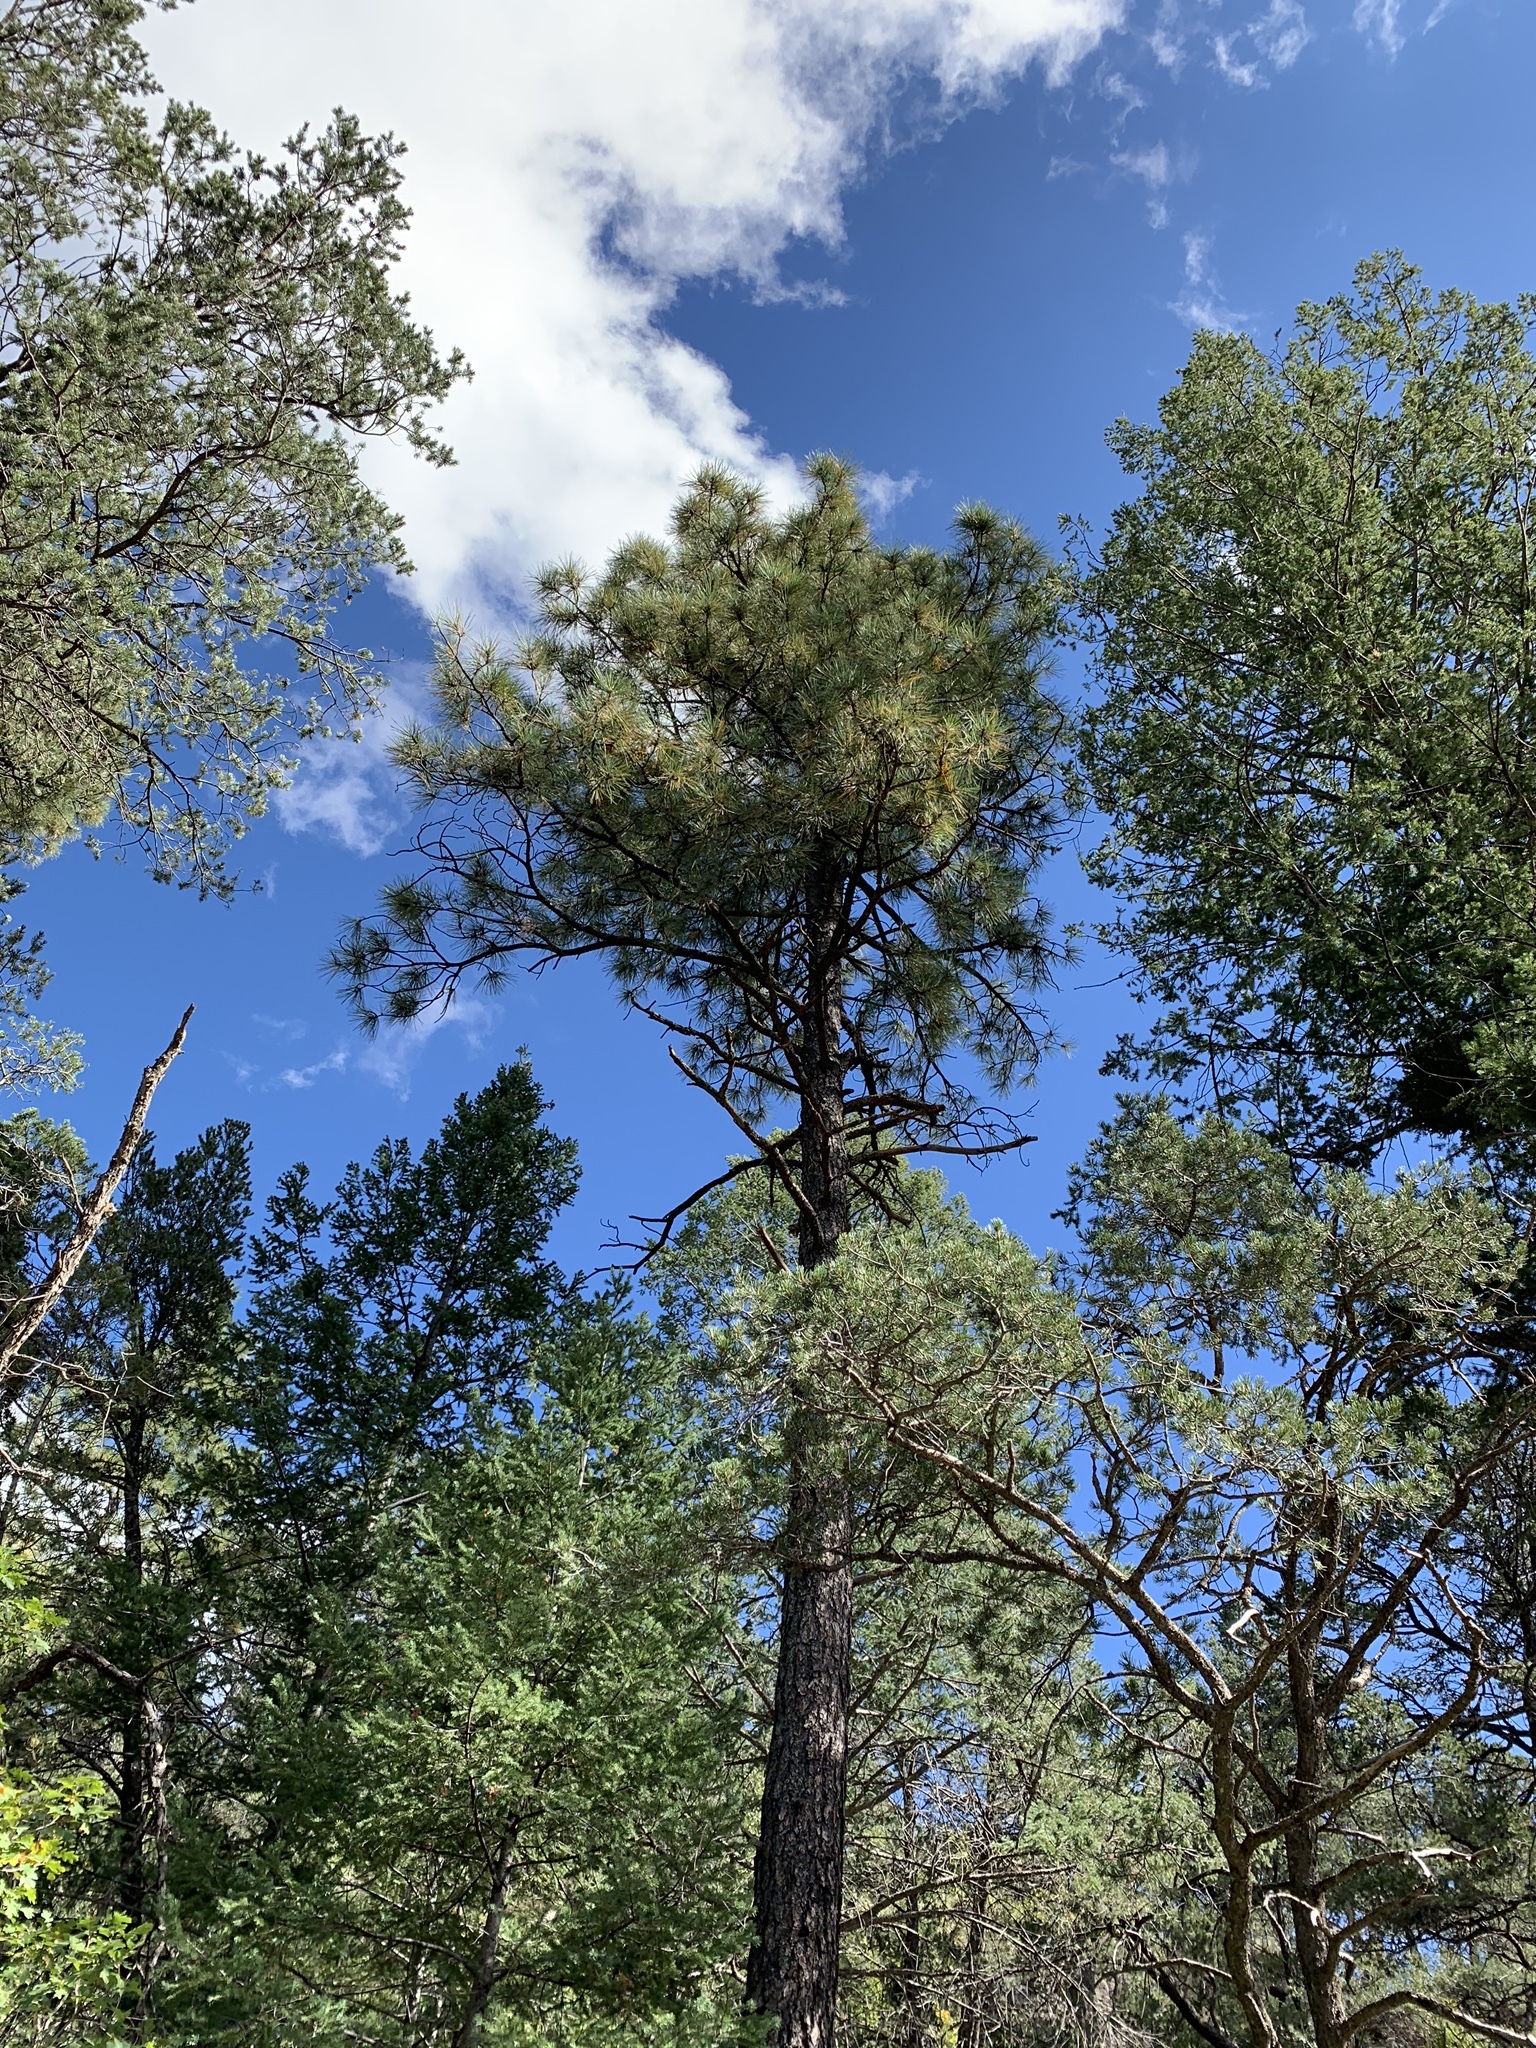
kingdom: Plantae
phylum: Tracheophyta
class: Pinopsida
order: Pinales
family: Pinaceae
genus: Pinus
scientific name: Pinus ponderosa
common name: Western yellow-pine
